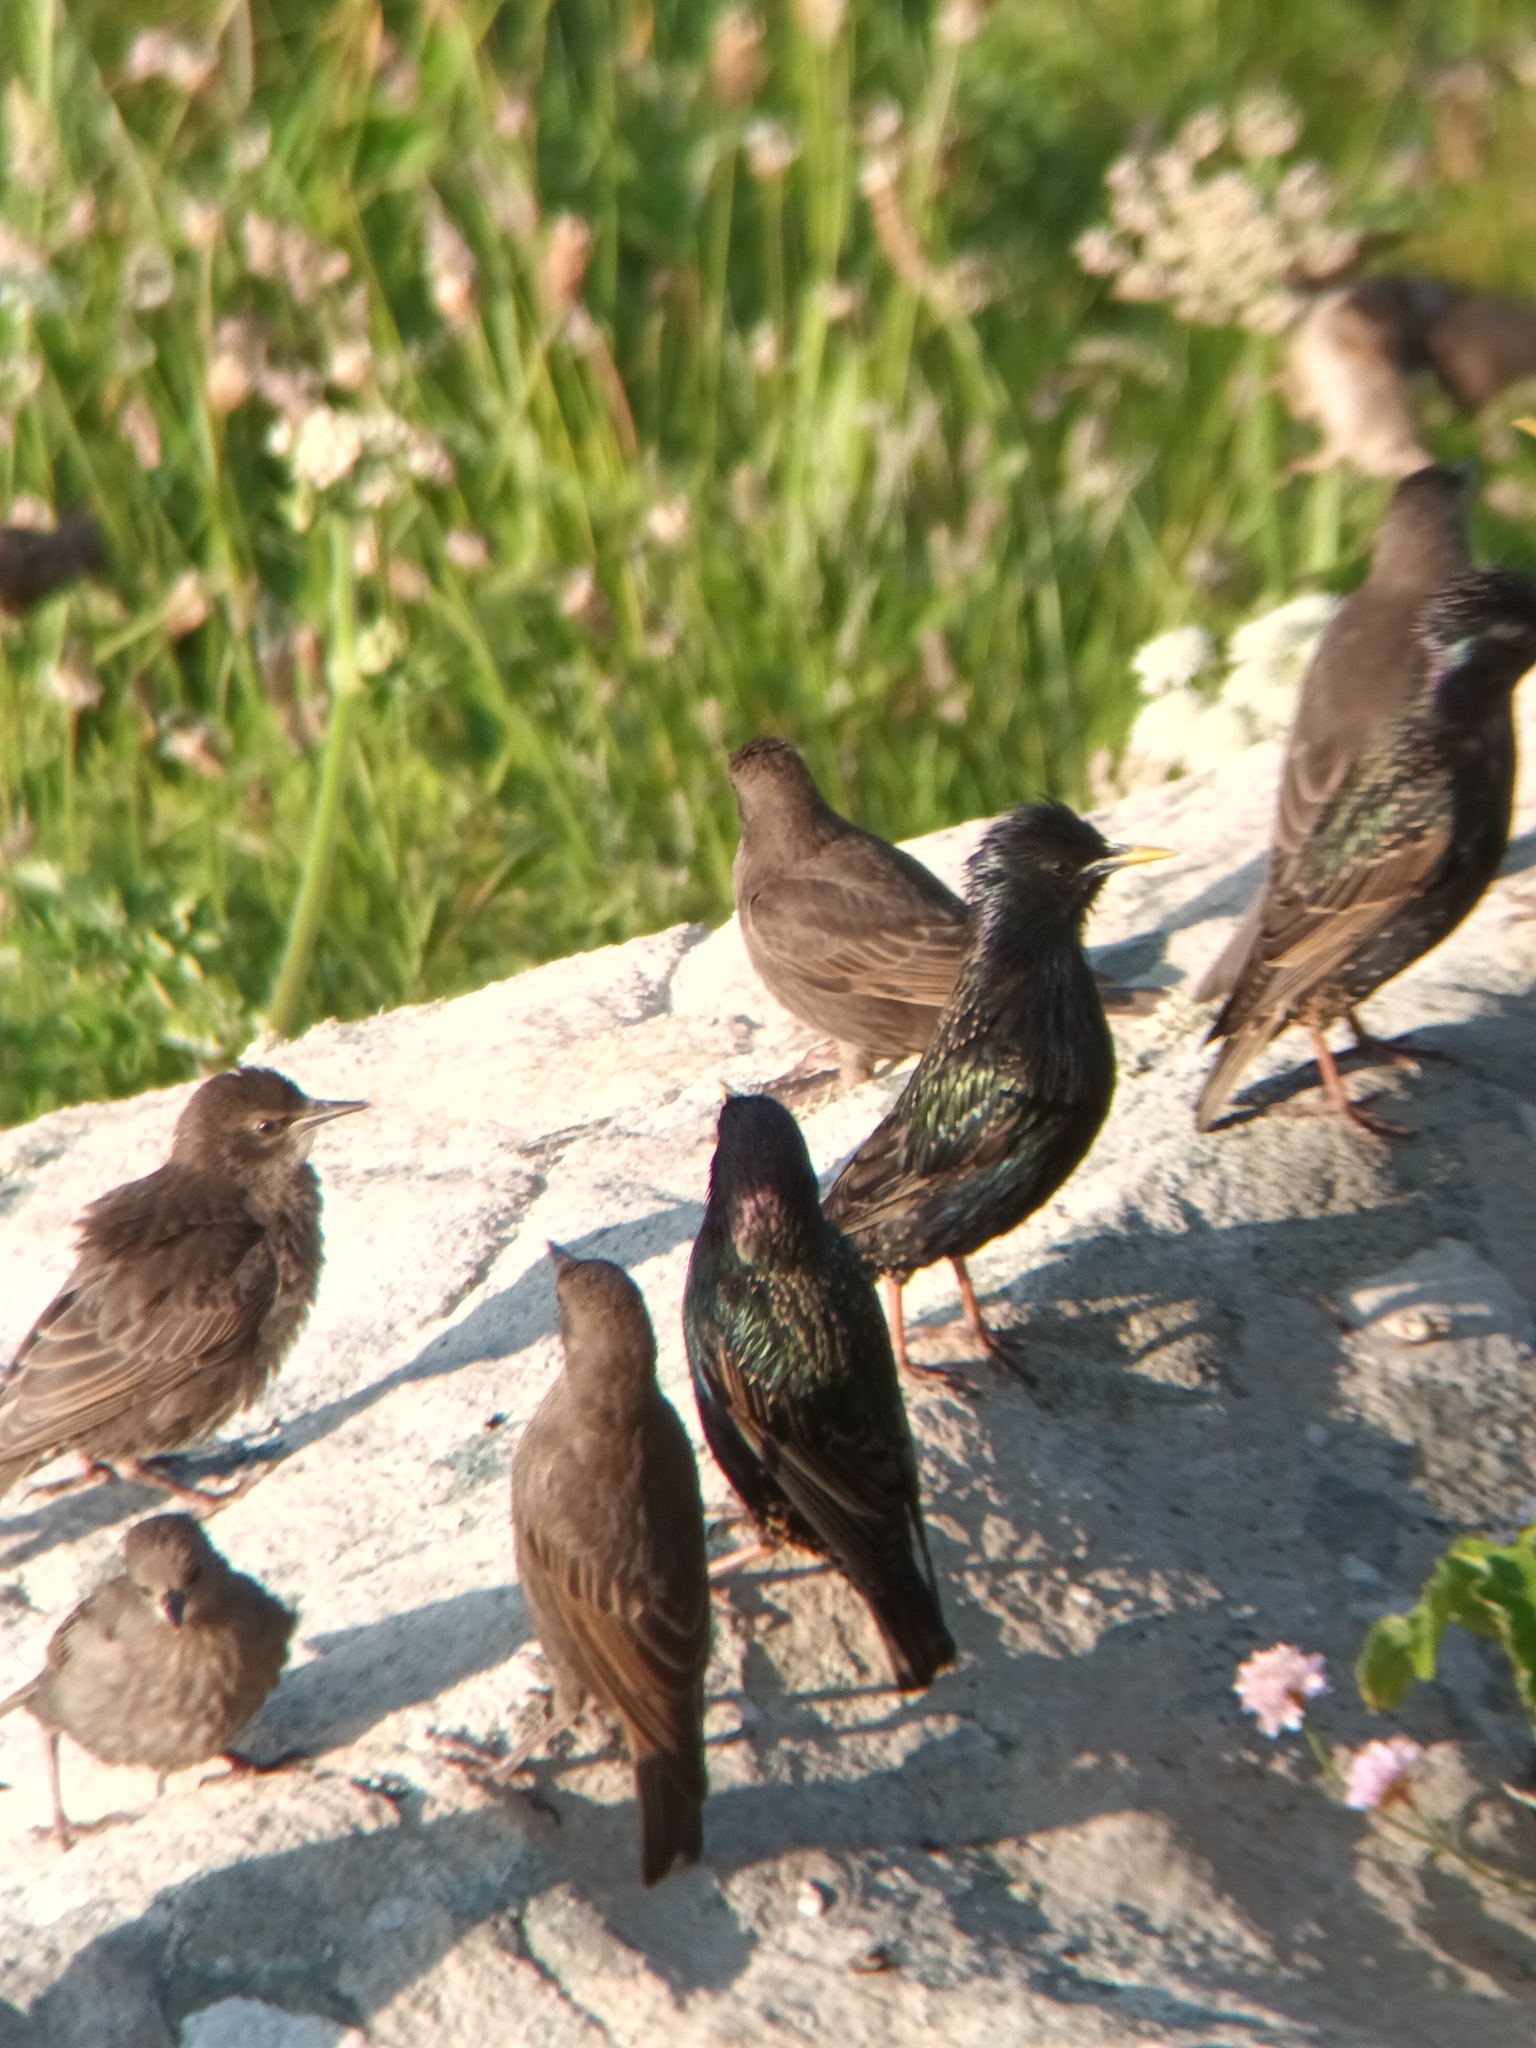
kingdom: Animalia
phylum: Chordata
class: Aves
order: Passeriformes
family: Sturnidae
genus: Sturnus
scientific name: Sturnus vulgaris
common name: Common starling
